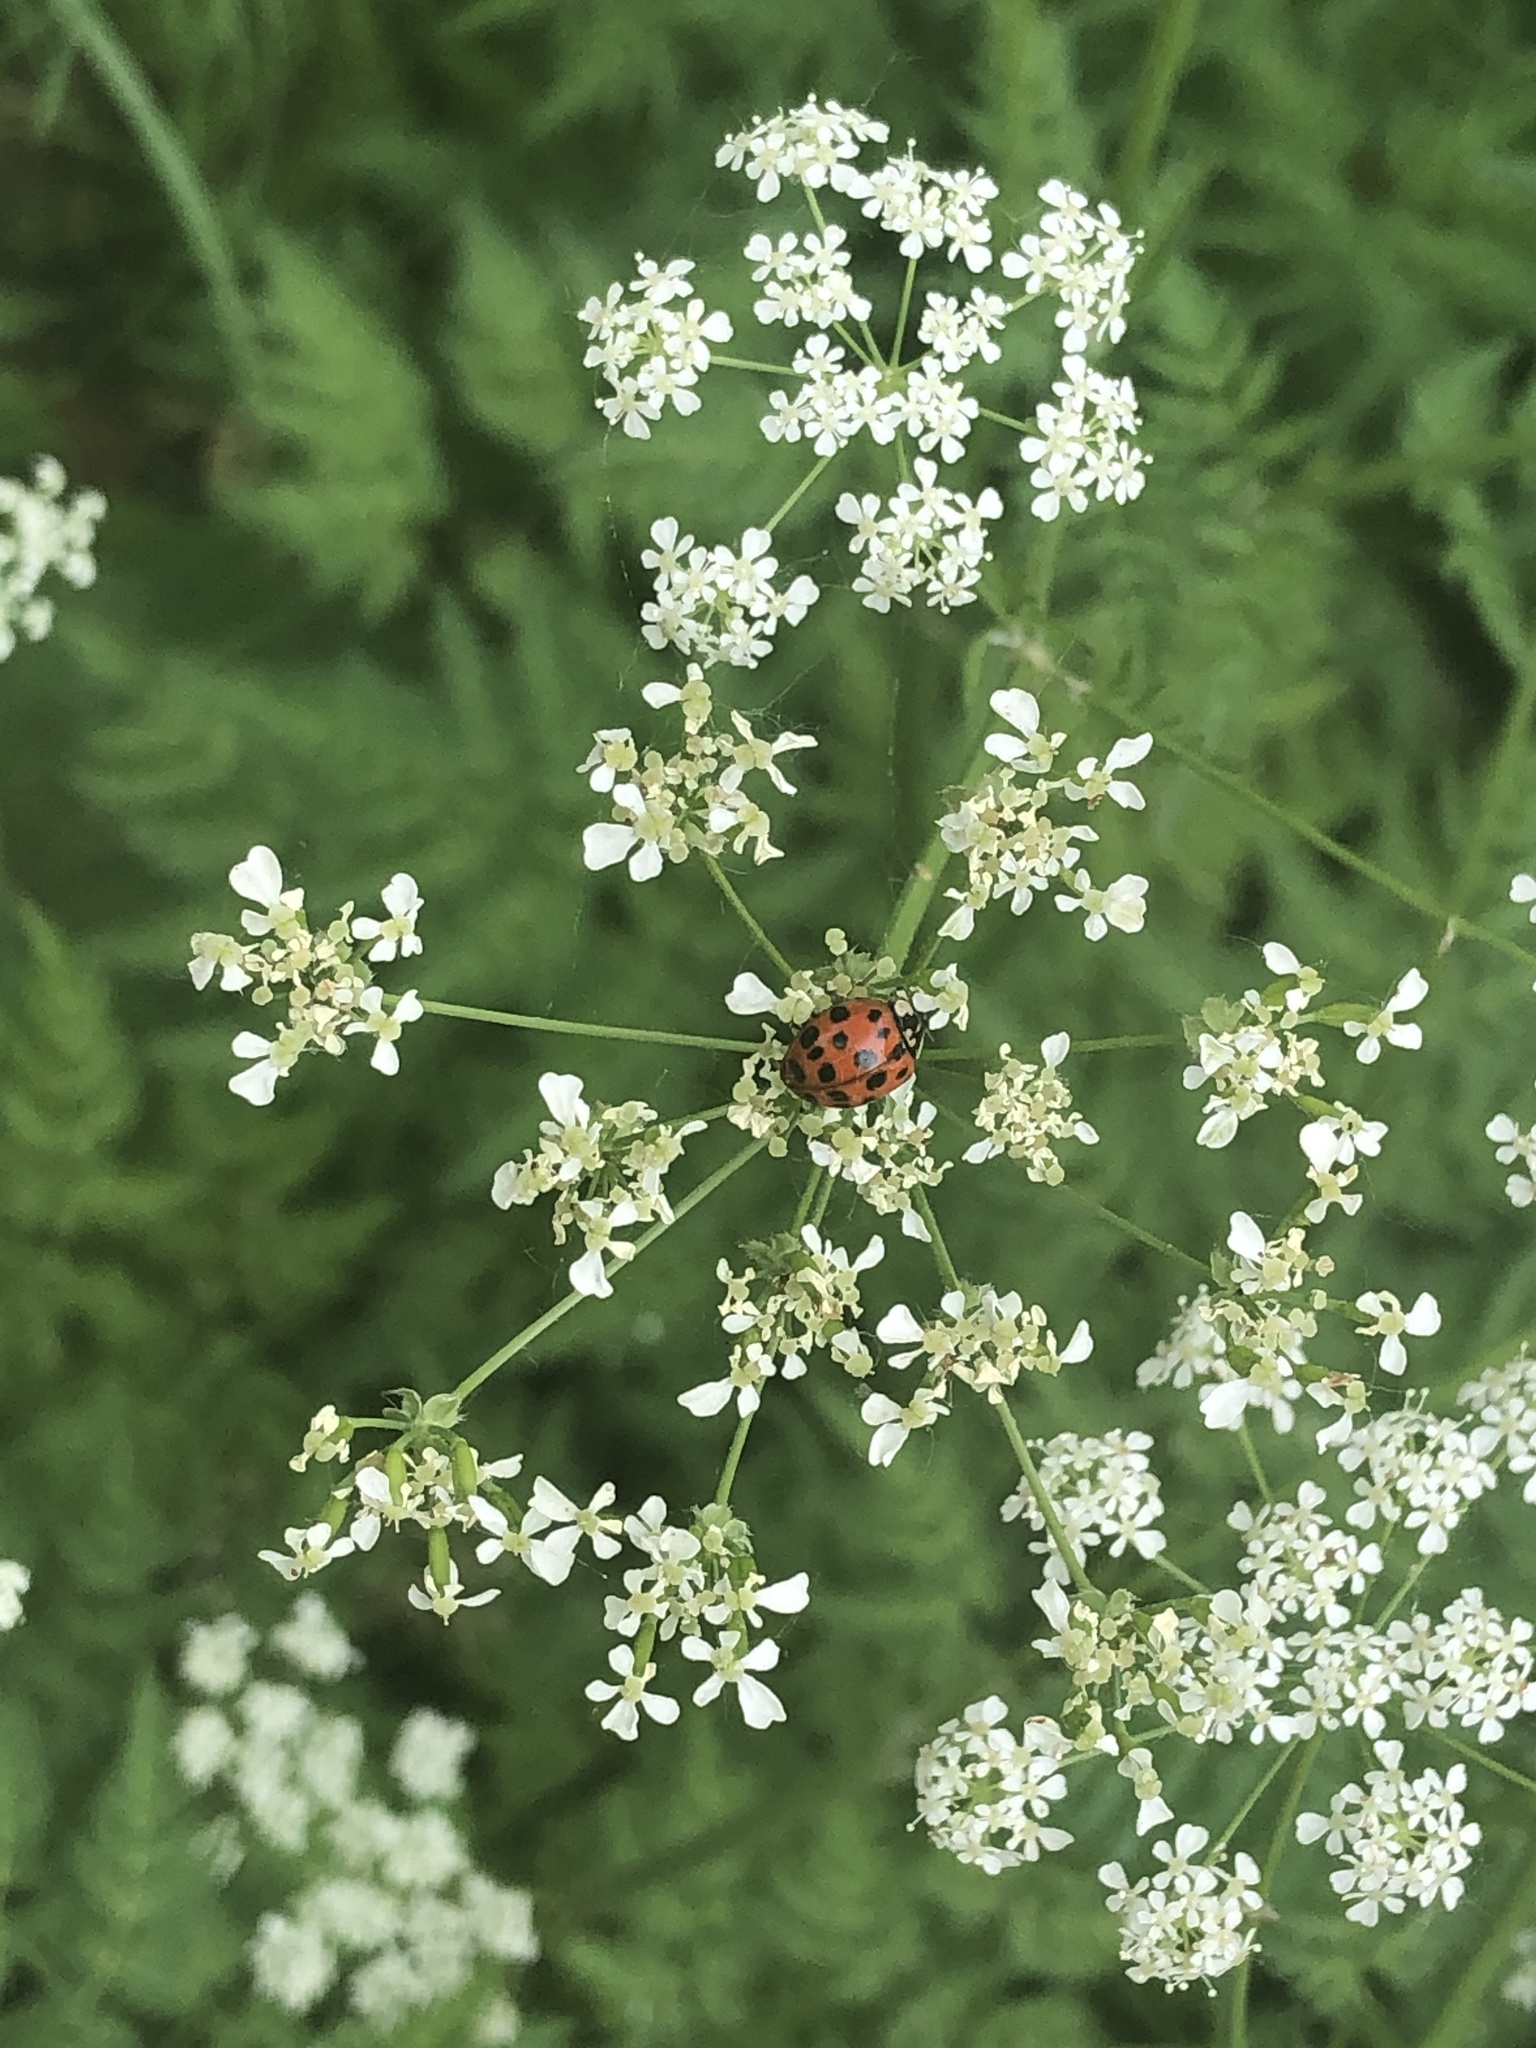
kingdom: Animalia
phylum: Arthropoda
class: Insecta
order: Coleoptera
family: Coccinellidae
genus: Harmonia
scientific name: Harmonia axyridis
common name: Harlequin ladybird
